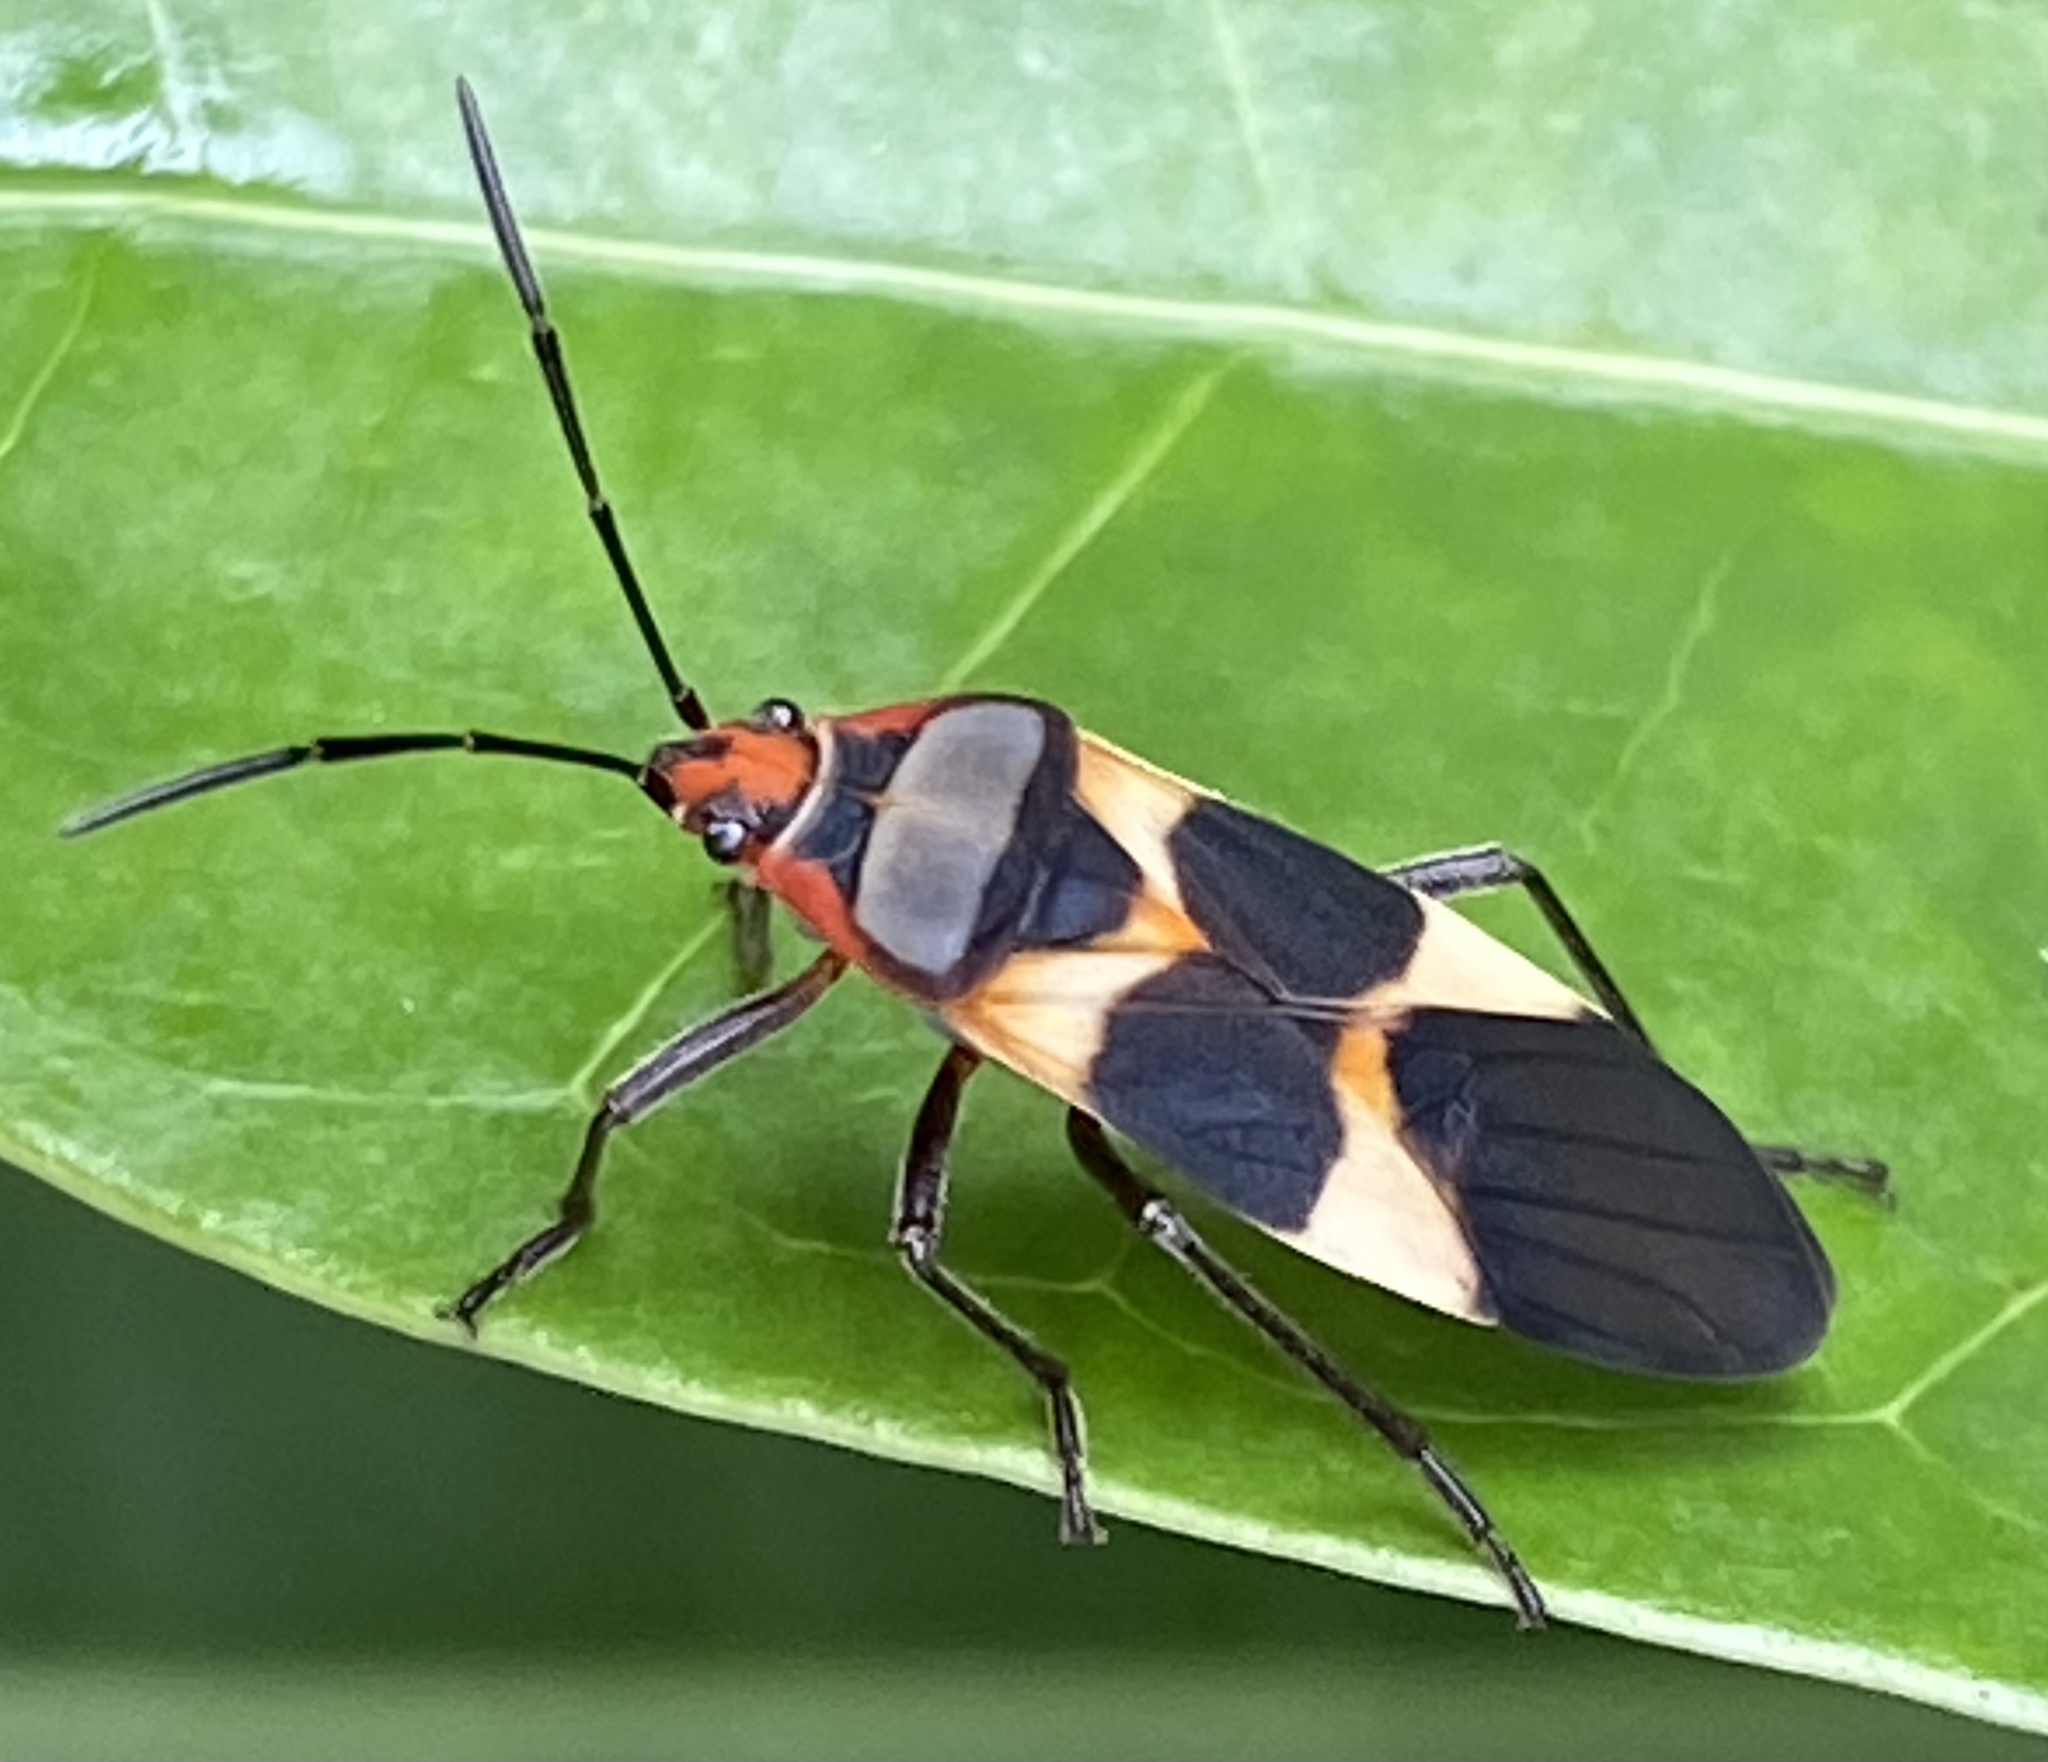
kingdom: Animalia
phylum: Arthropoda
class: Insecta
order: Hemiptera
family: Lygaeidae
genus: Oncopeltus
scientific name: Oncopeltus unifasciatellus
